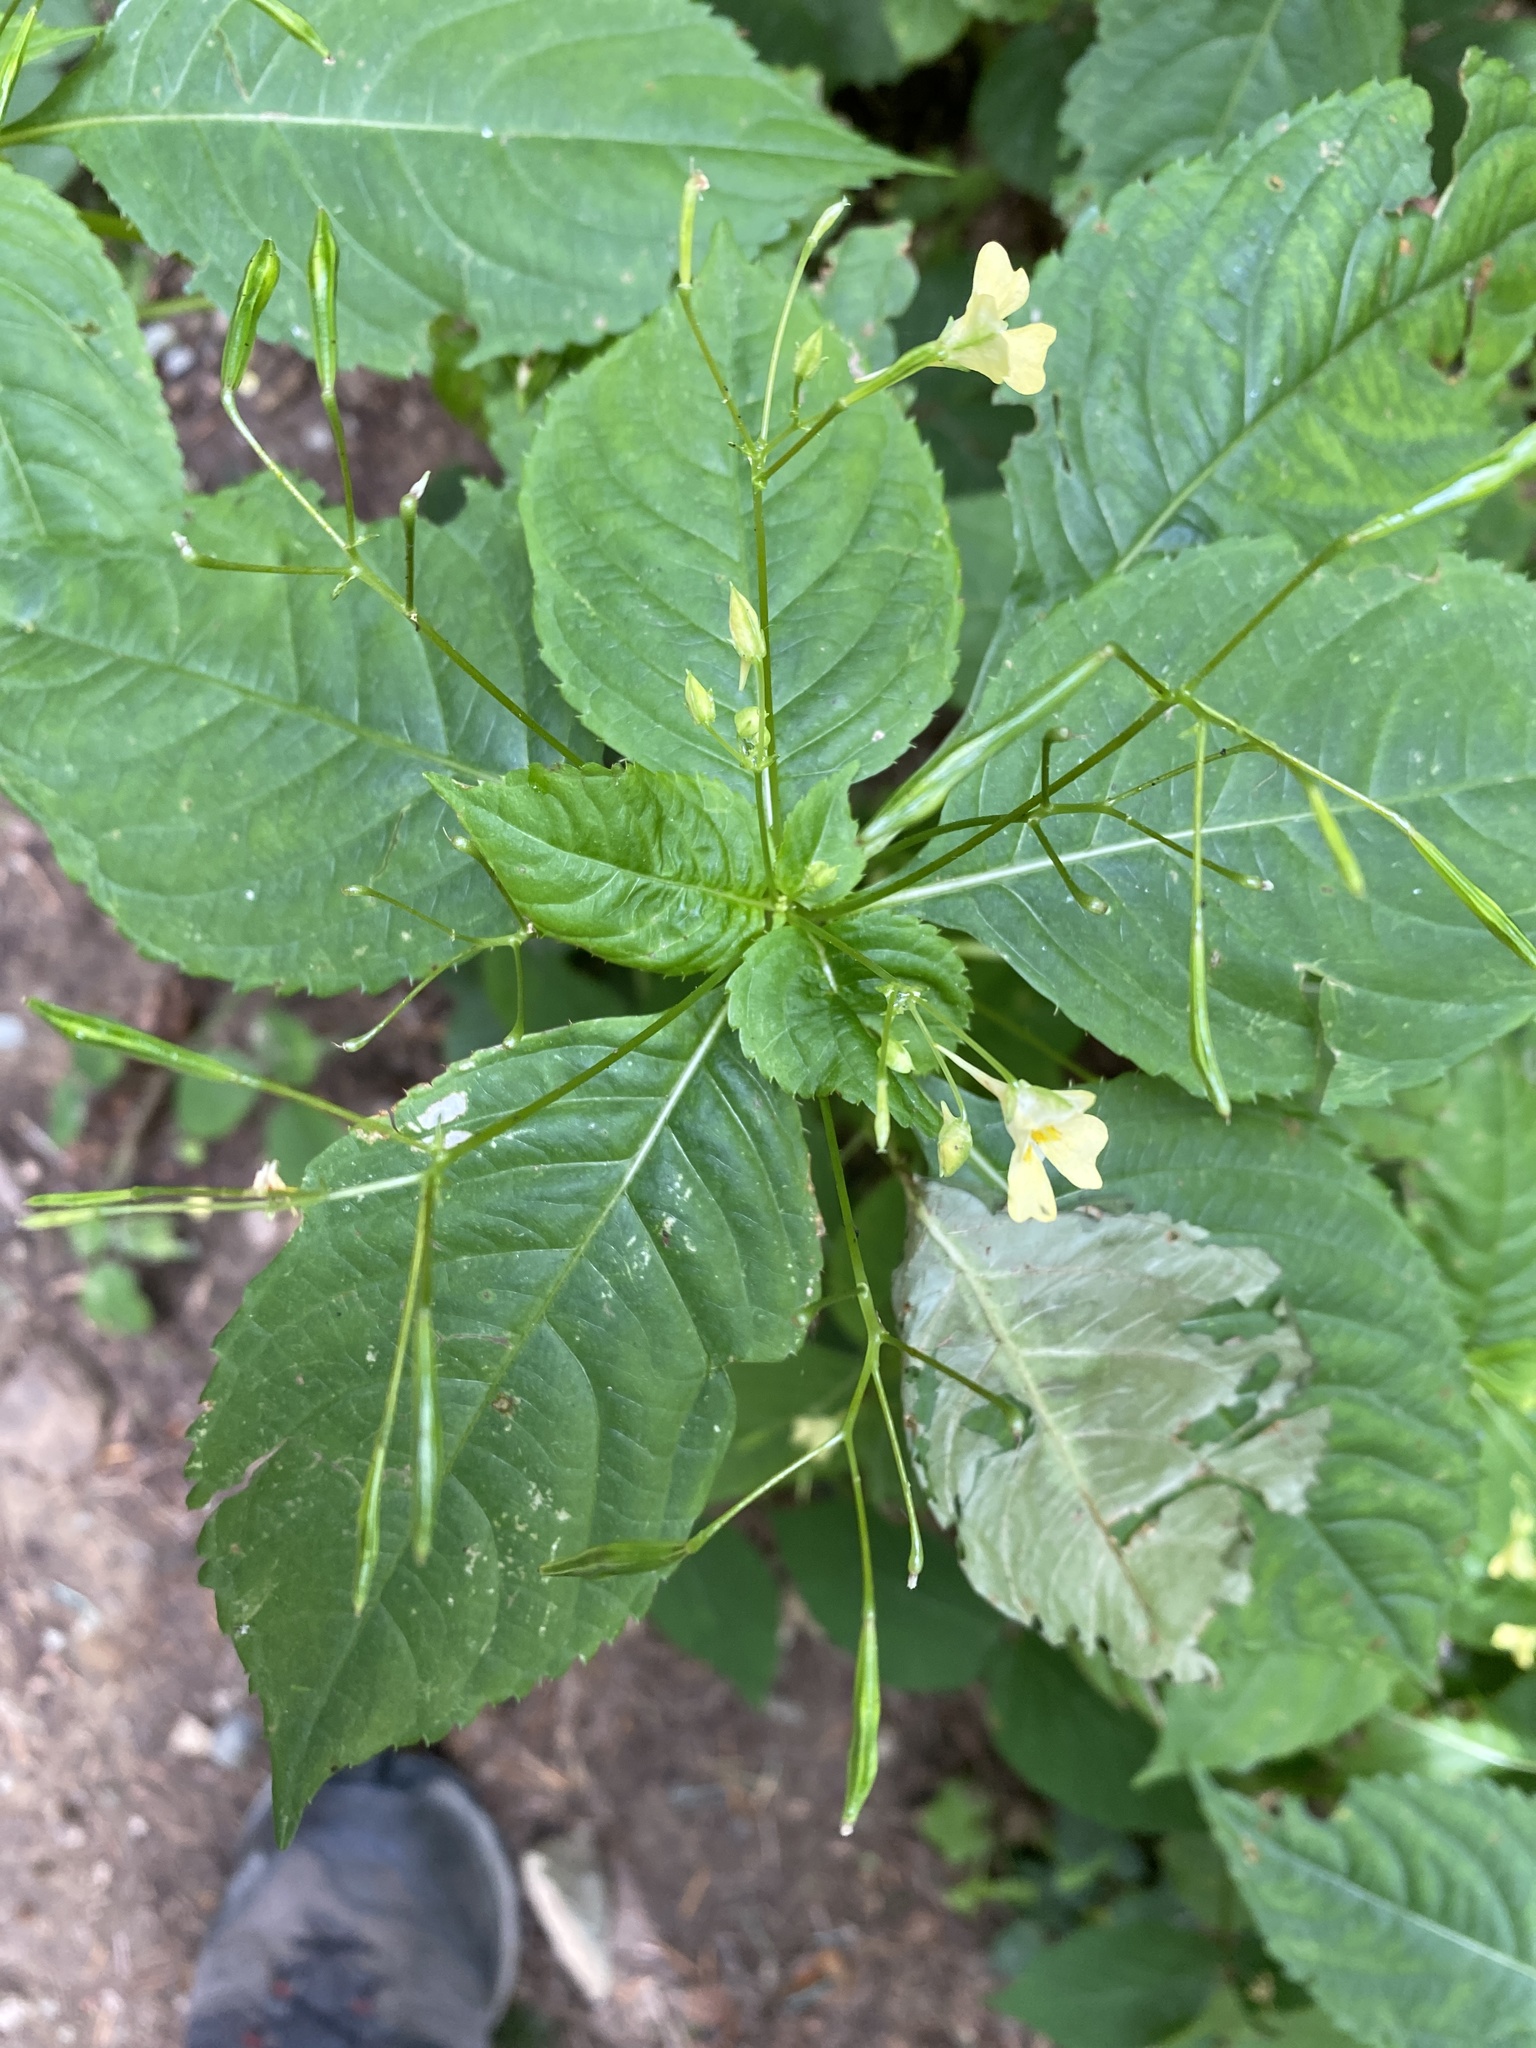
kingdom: Plantae
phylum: Tracheophyta
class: Magnoliopsida
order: Ericales
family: Balsaminaceae
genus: Impatiens
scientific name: Impatiens parviflora
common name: Small balsam
